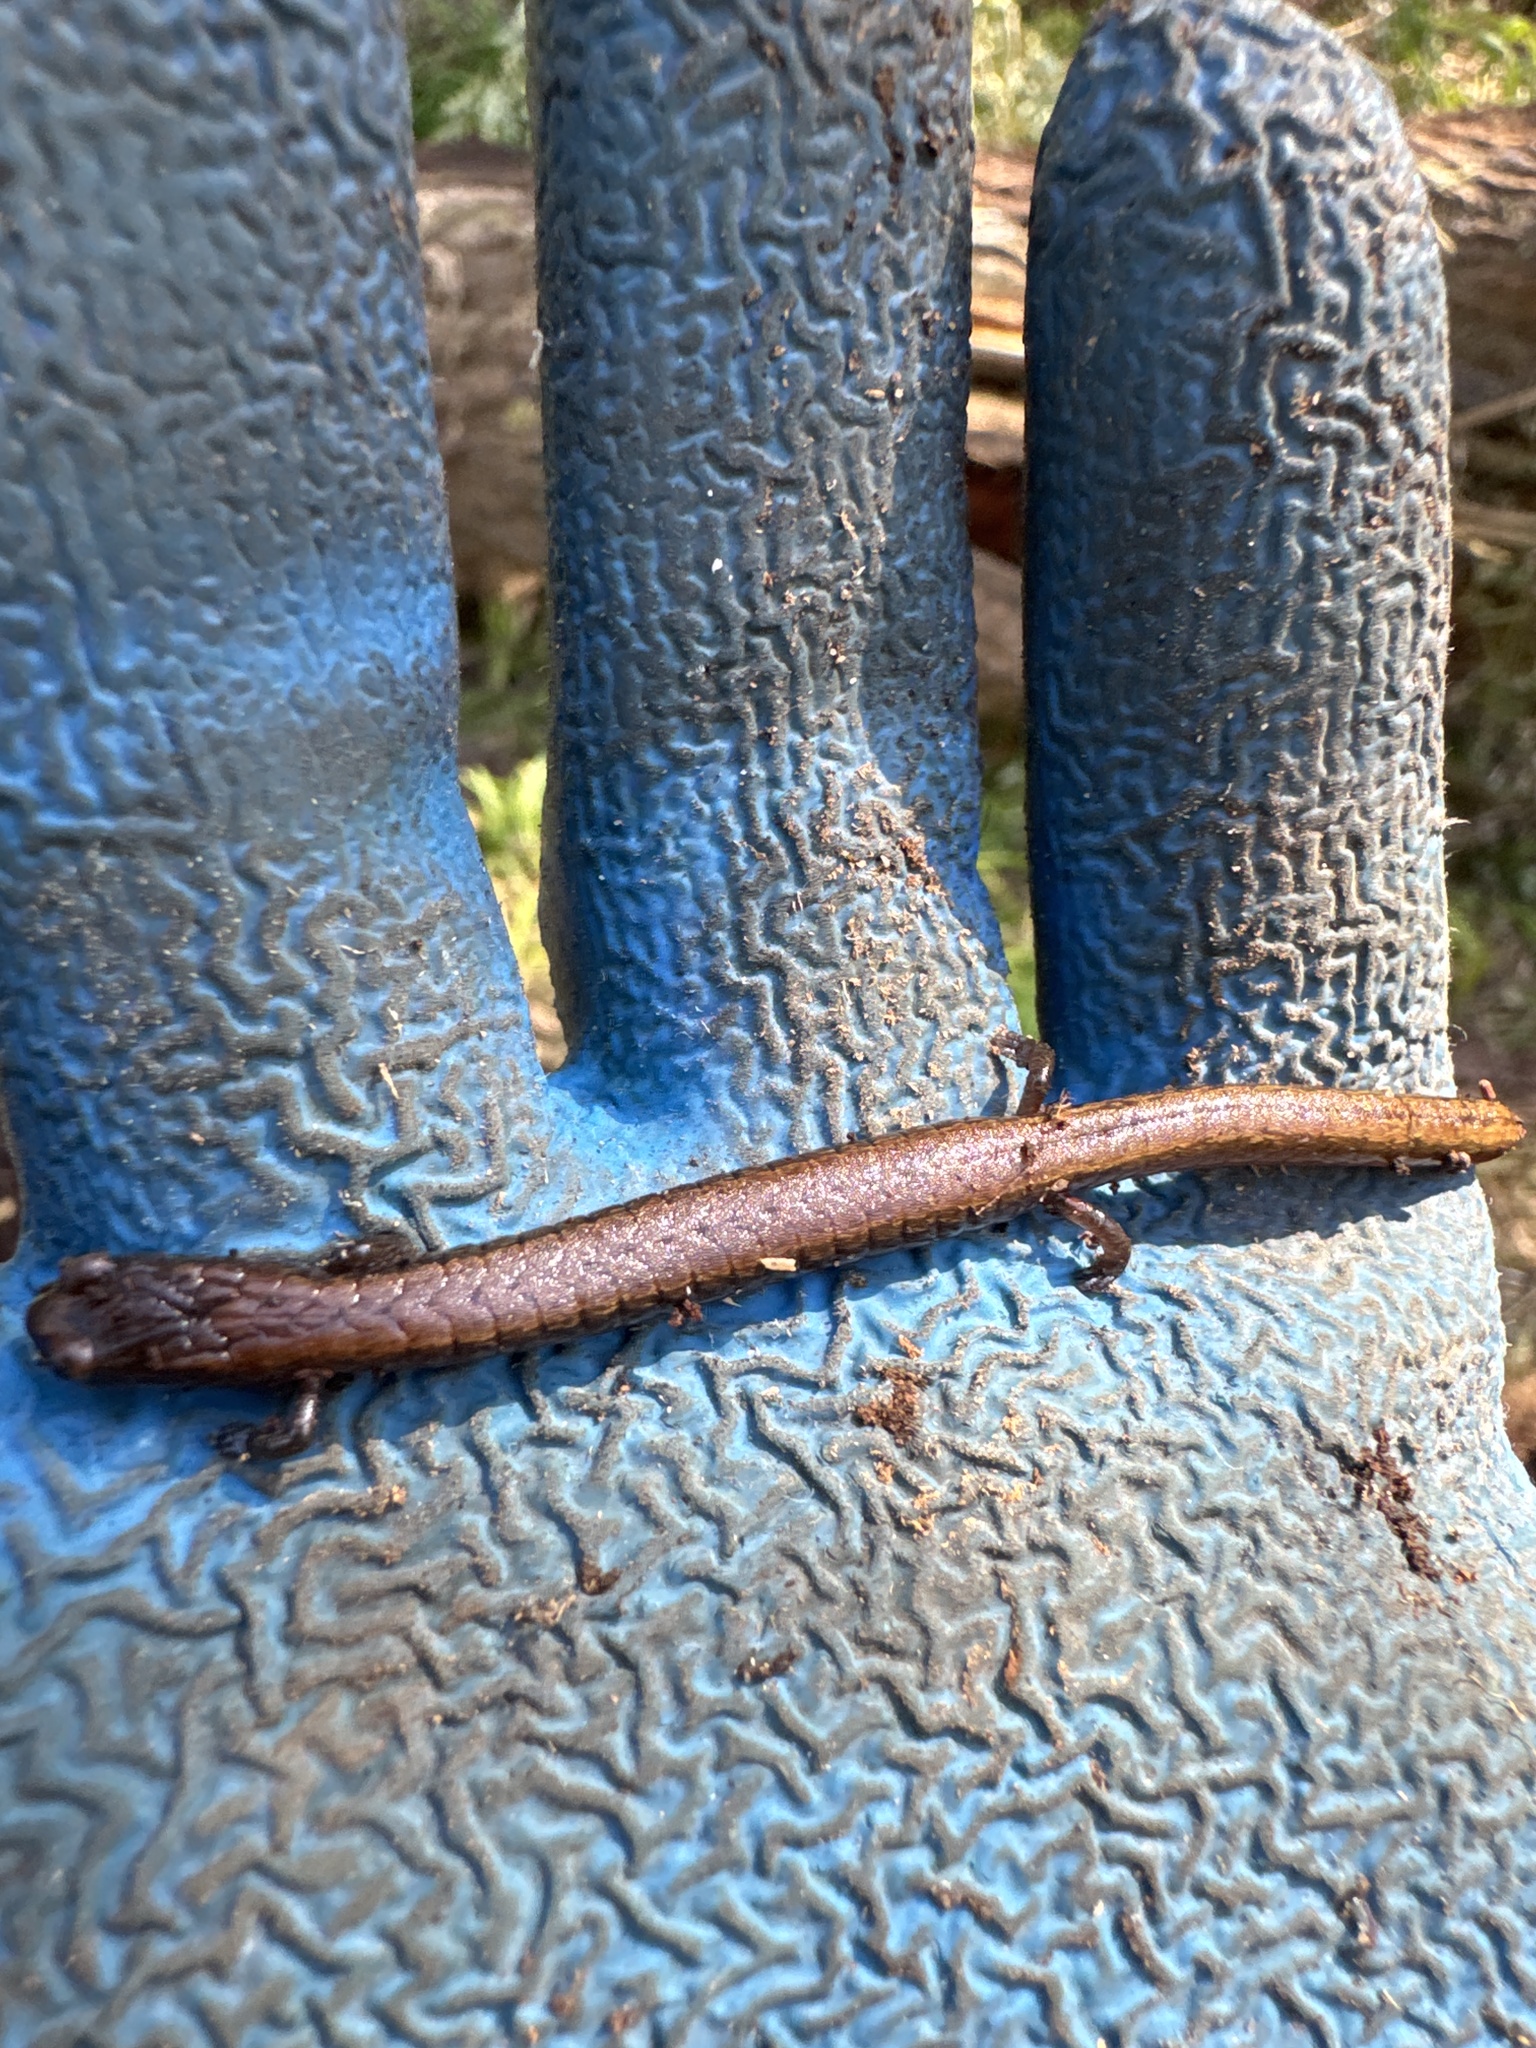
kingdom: Animalia
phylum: Chordata
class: Amphibia
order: Caudata
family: Plethodontidae
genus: Batrachoseps
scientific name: Batrachoseps attenuatus
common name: California slender salamander
